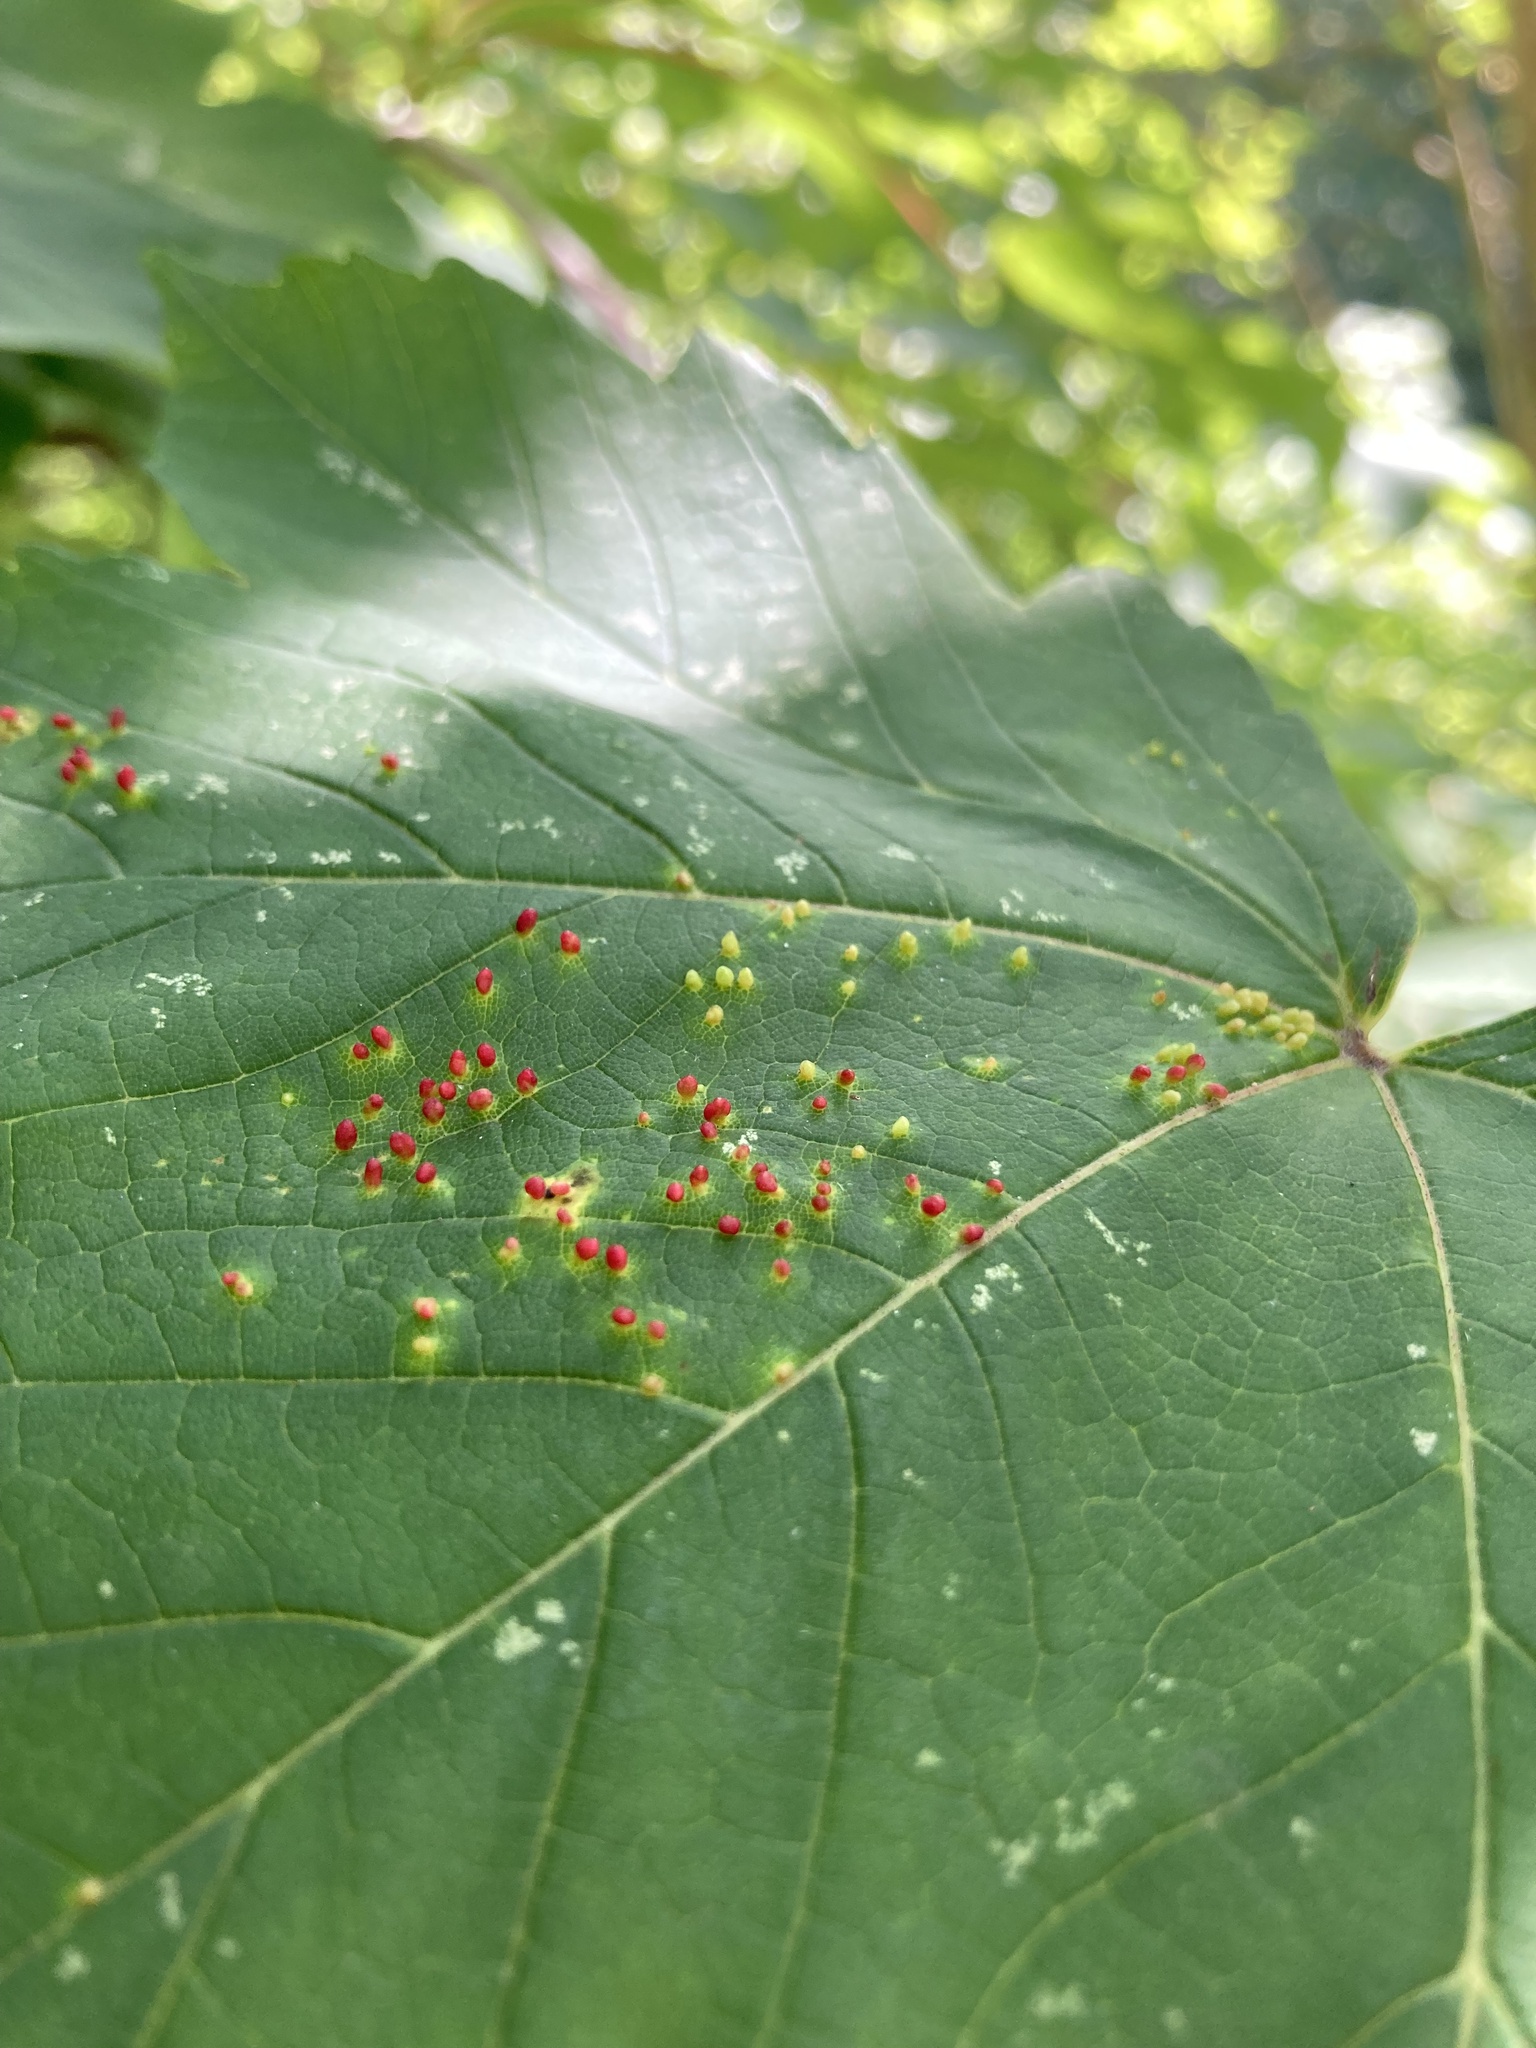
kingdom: Animalia
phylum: Arthropoda
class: Arachnida
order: Trombidiformes
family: Eriophyidae
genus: Aceria
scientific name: Aceria cephaloneus
